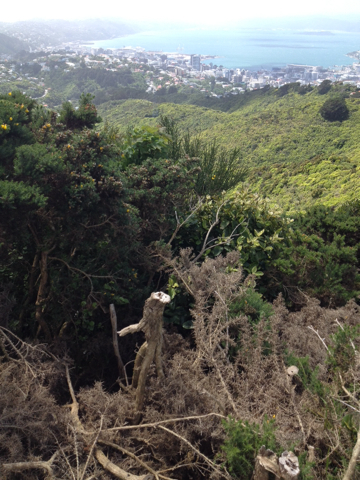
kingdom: Plantae
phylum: Tracheophyta
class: Magnoliopsida
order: Sapindales
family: Sapindaceae
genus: Acer
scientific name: Acer pseudoplatanus
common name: Sycamore
